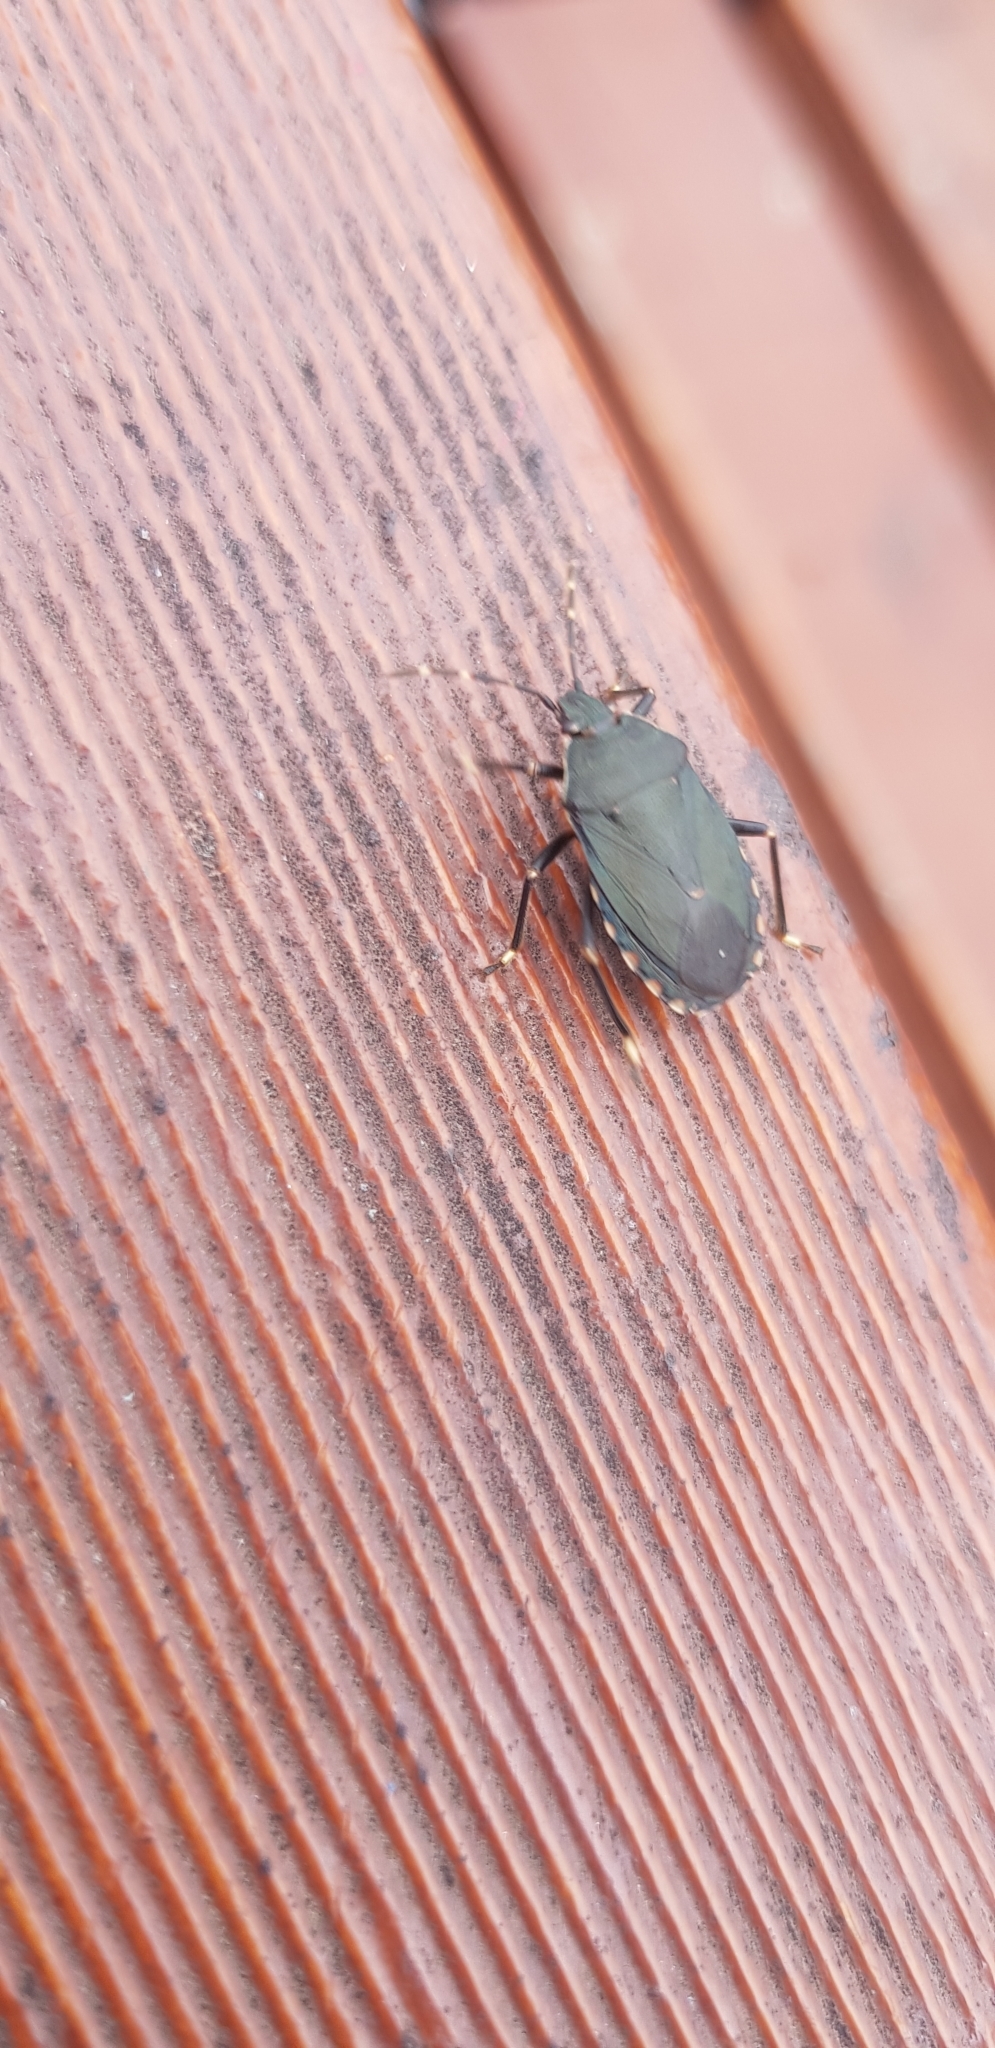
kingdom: Animalia
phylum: Arthropoda
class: Insecta
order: Hemiptera
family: Pentatomidae
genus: Notius
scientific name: Notius
